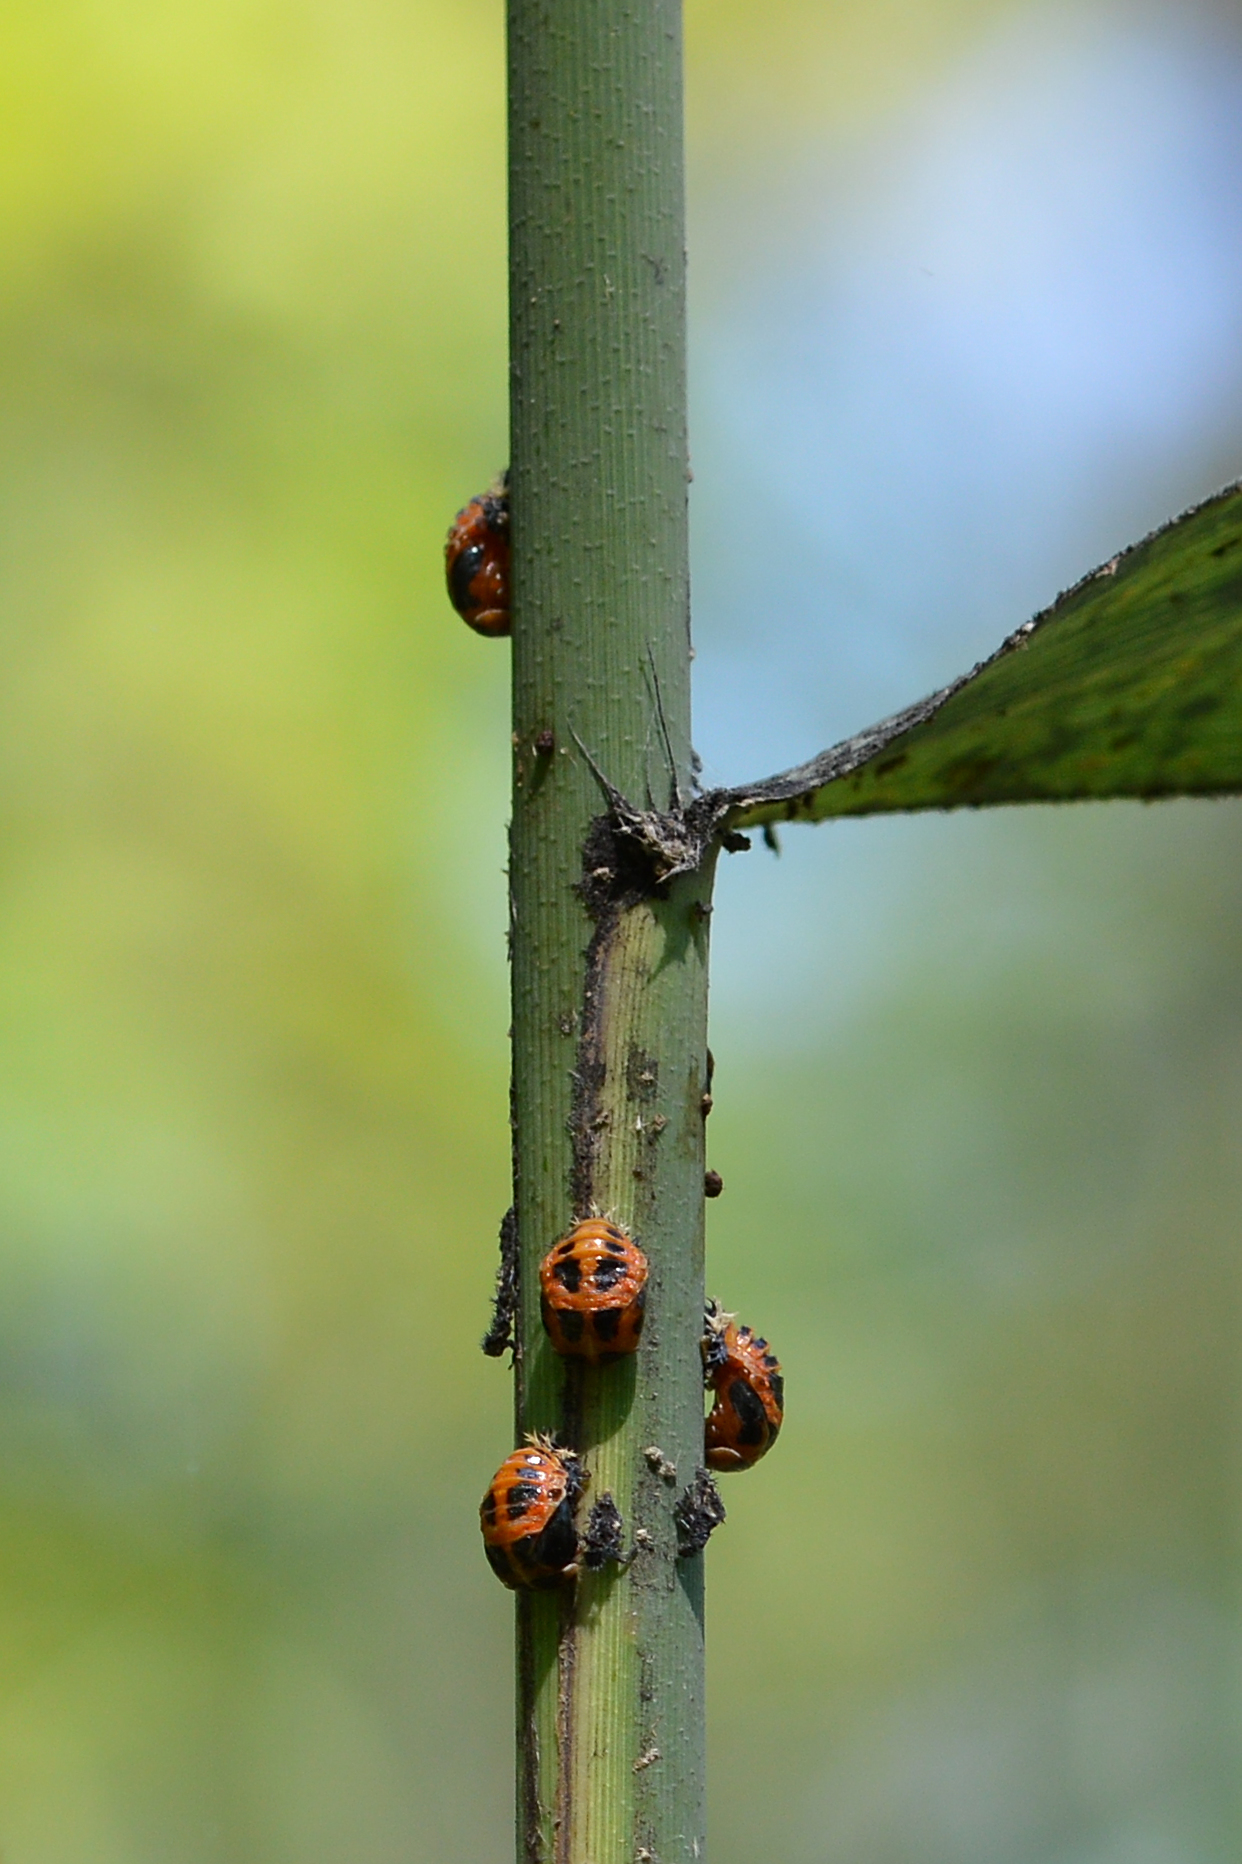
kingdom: Animalia
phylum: Arthropoda
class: Insecta
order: Coleoptera
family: Coccinellidae
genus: Harmonia
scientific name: Harmonia axyridis
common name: Harlequin ladybird
